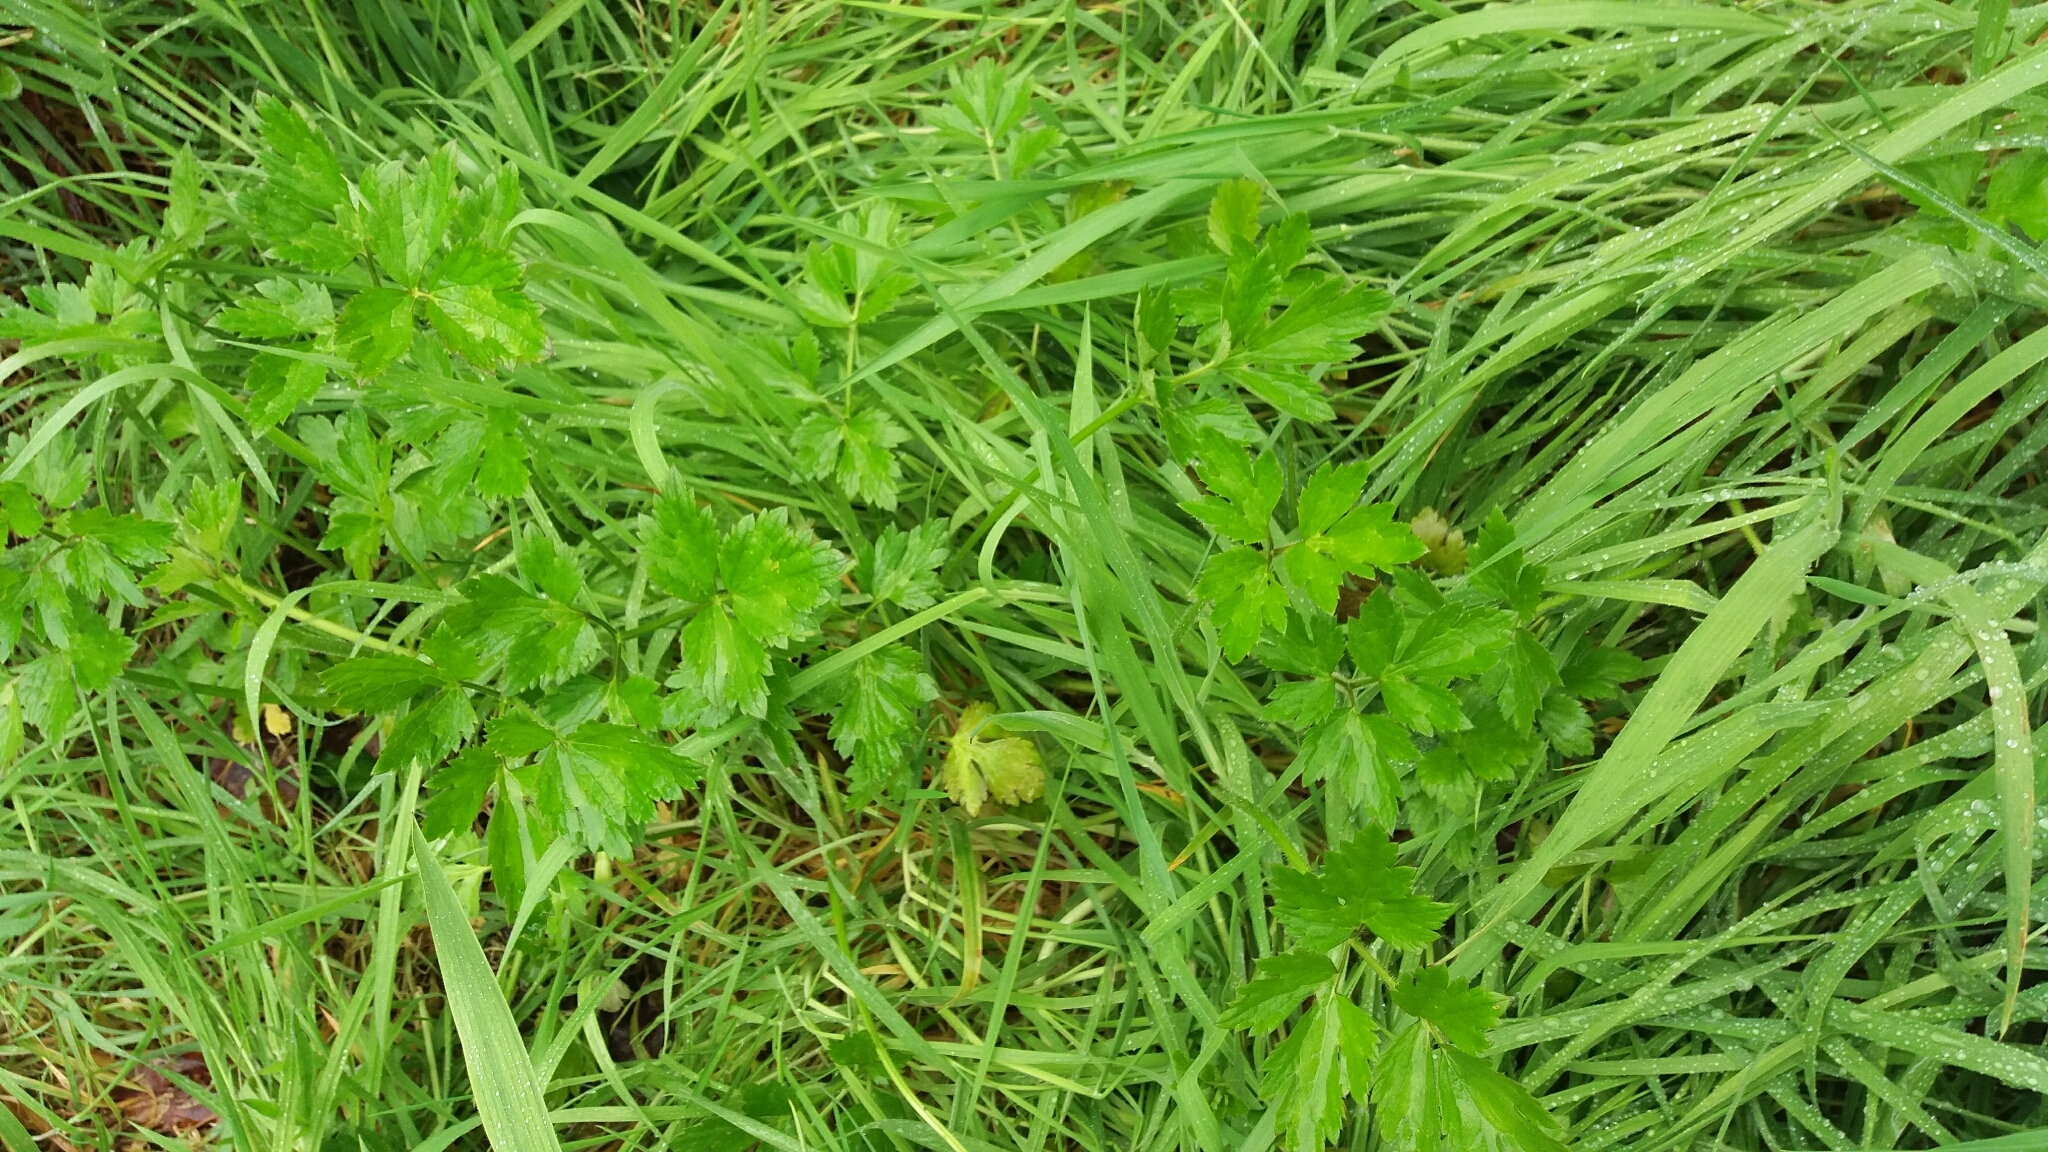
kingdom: Plantae
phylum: Tracheophyta
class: Magnoliopsida
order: Ranunculales
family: Ranunculaceae
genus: Ranunculus
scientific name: Ranunculus repens
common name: Creeping buttercup
